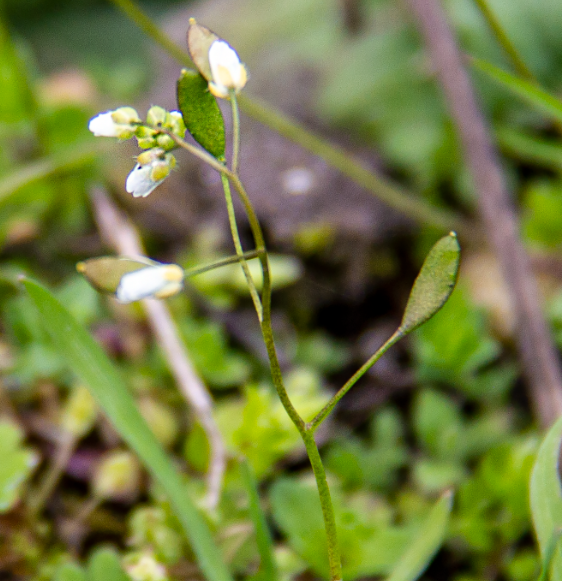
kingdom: Plantae
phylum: Tracheophyta
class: Magnoliopsida
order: Brassicales
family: Brassicaceae
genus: Draba
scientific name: Draba verna
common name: Spring draba
